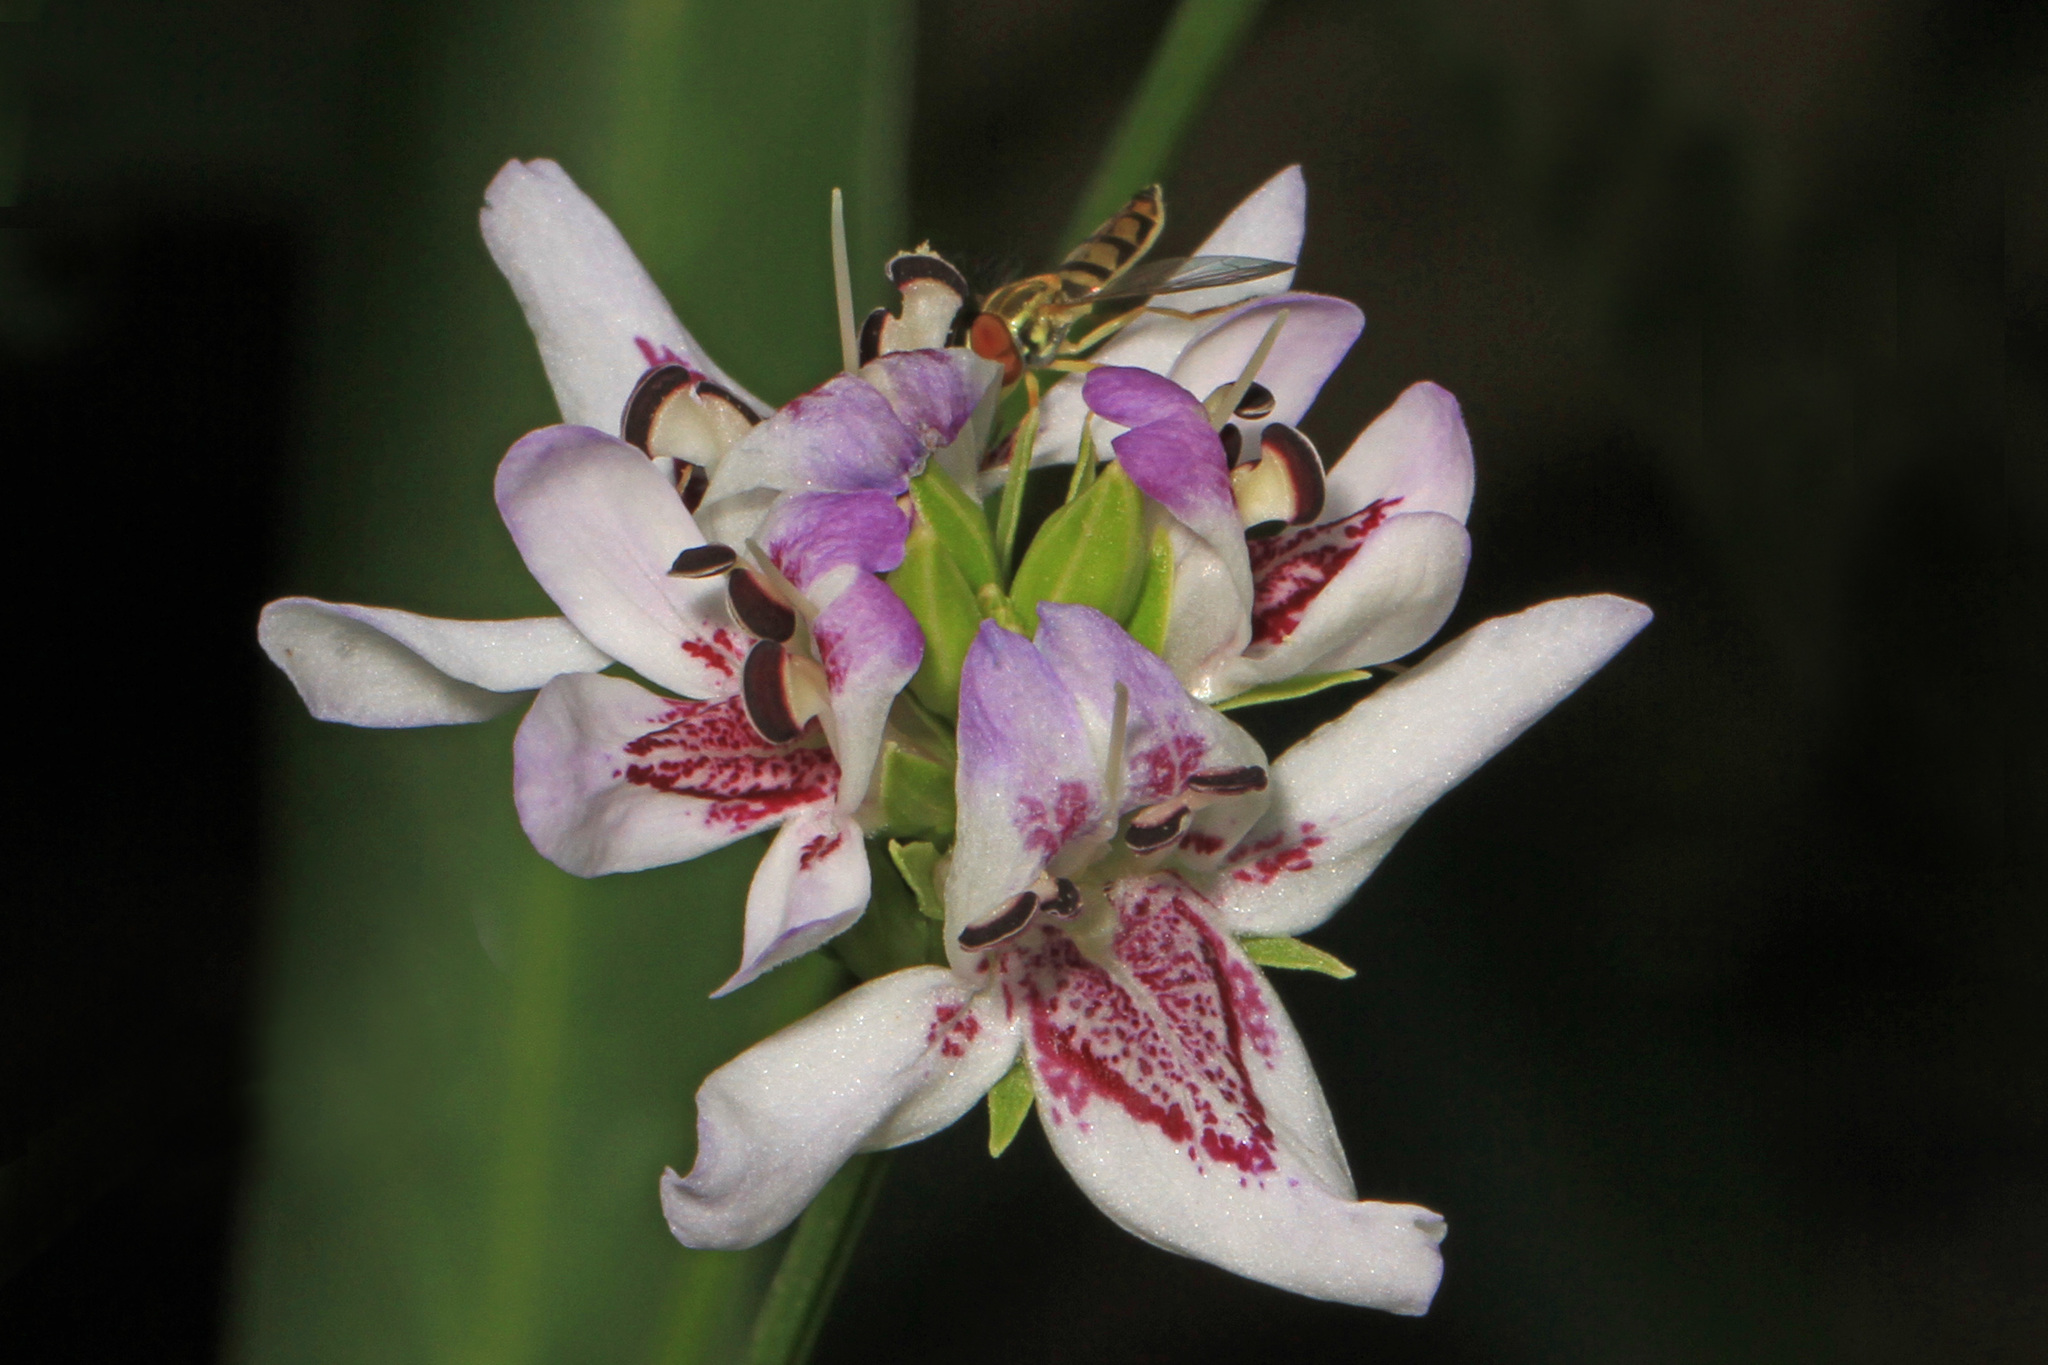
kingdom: Plantae
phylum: Tracheophyta
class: Magnoliopsida
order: Lamiales
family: Acanthaceae
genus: Dianthera
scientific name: Dianthera americana
